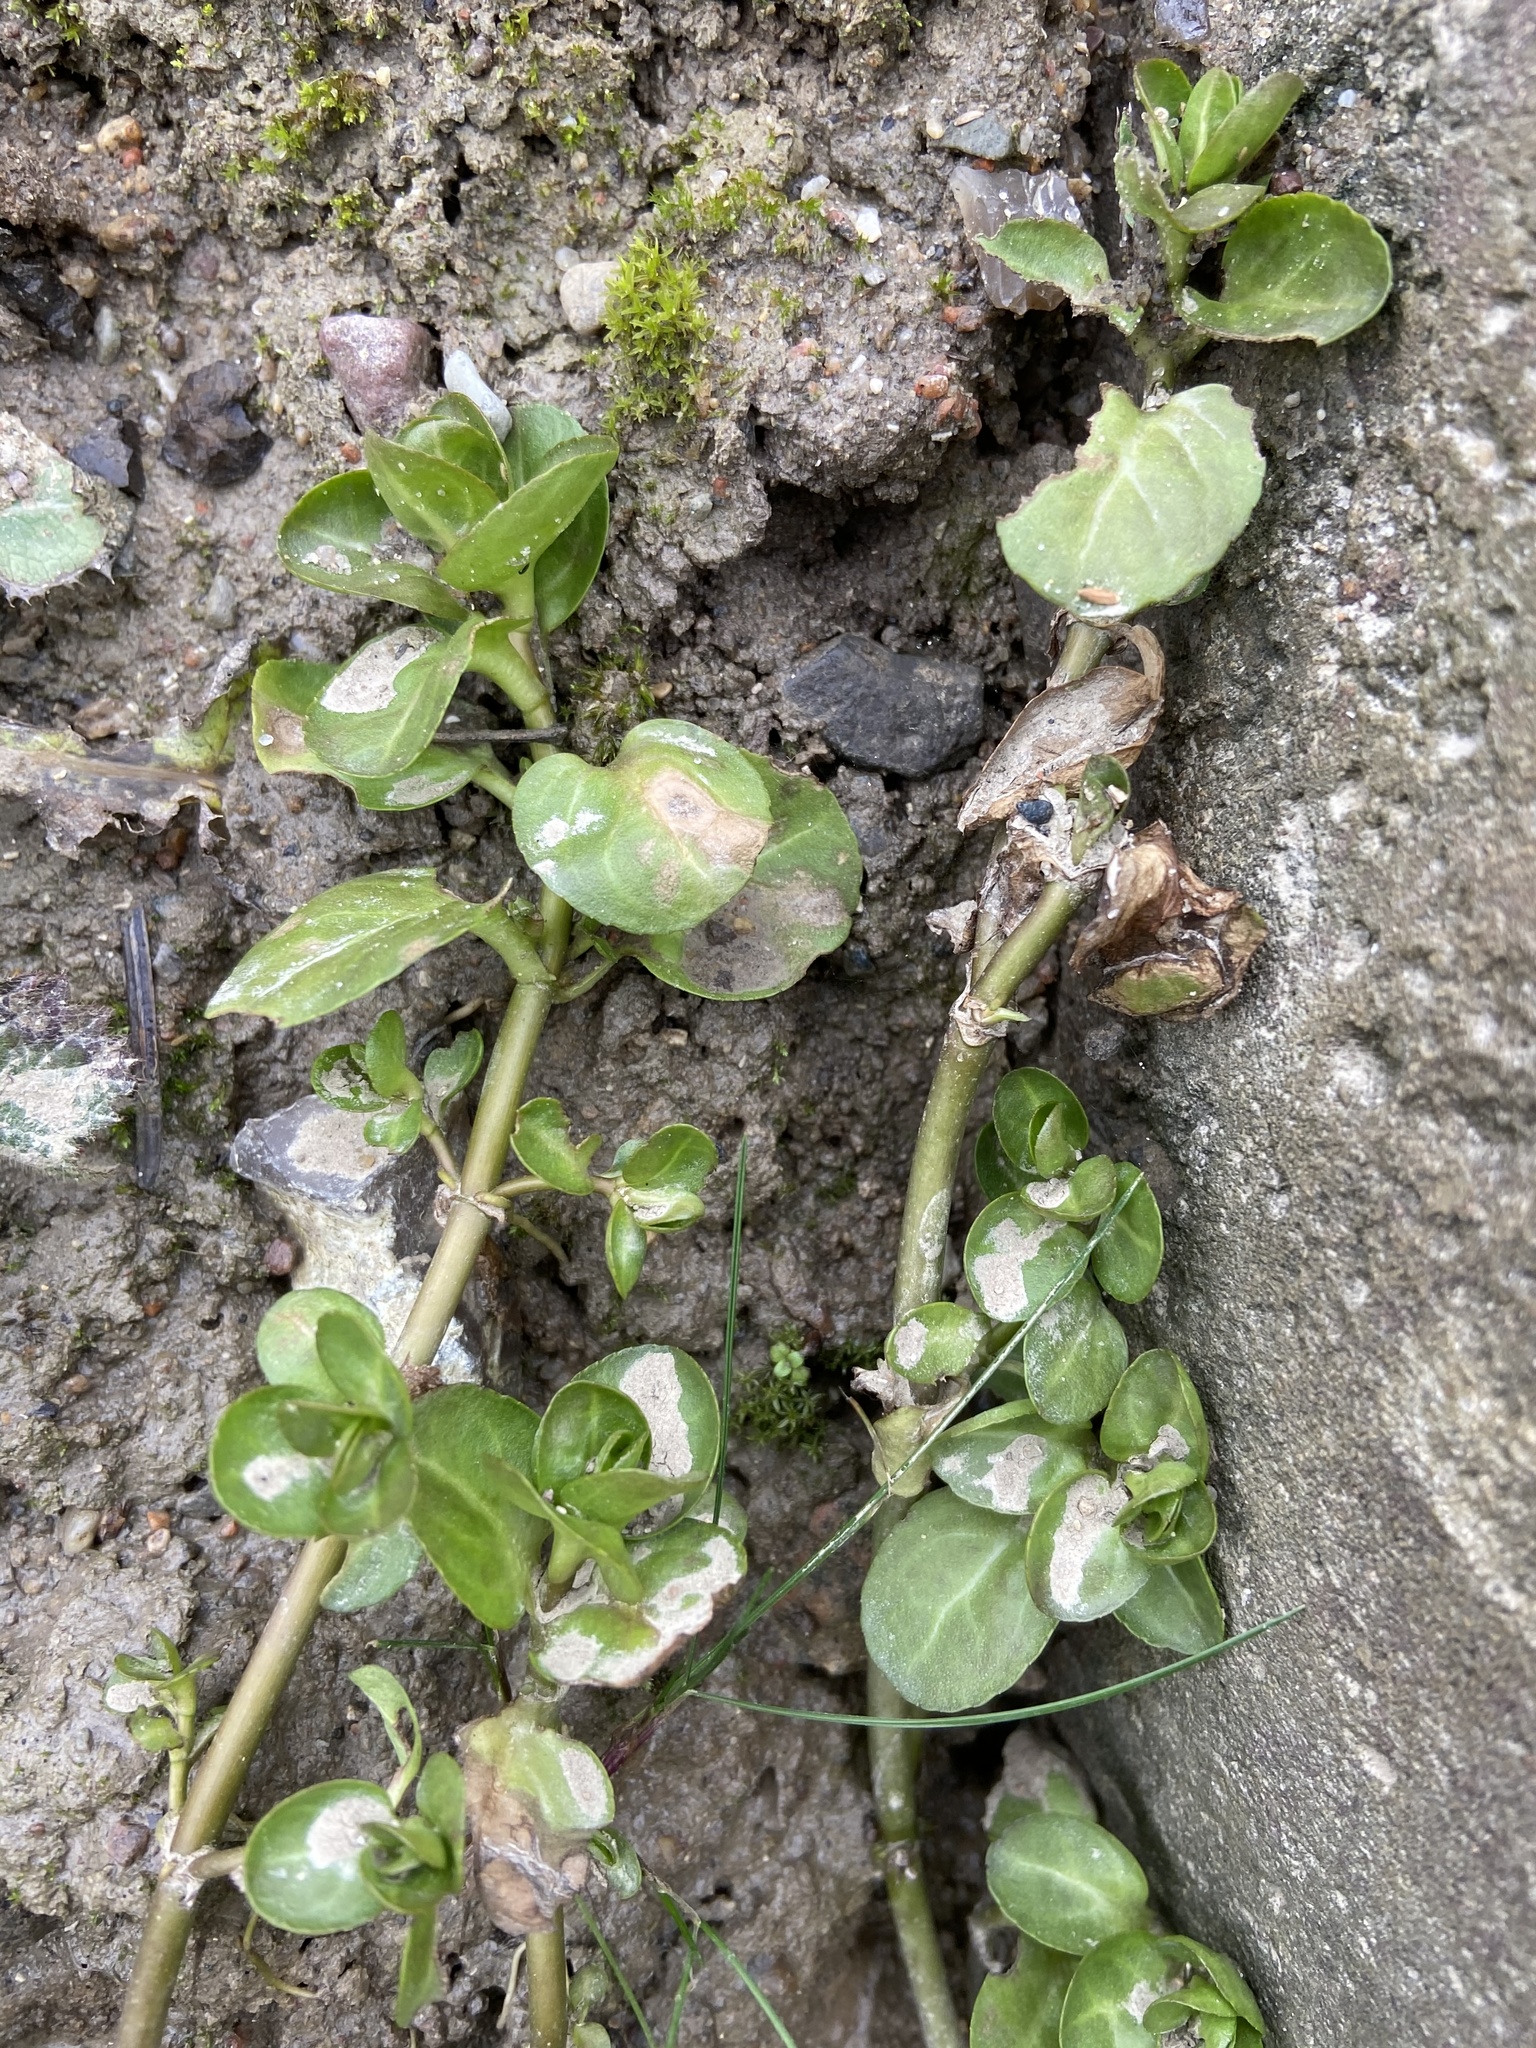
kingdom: Plantae
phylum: Tracheophyta
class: Magnoliopsida
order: Lamiales
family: Plantaginaceae
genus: Veronica
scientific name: Veronica beccabunga
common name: Brooklime
